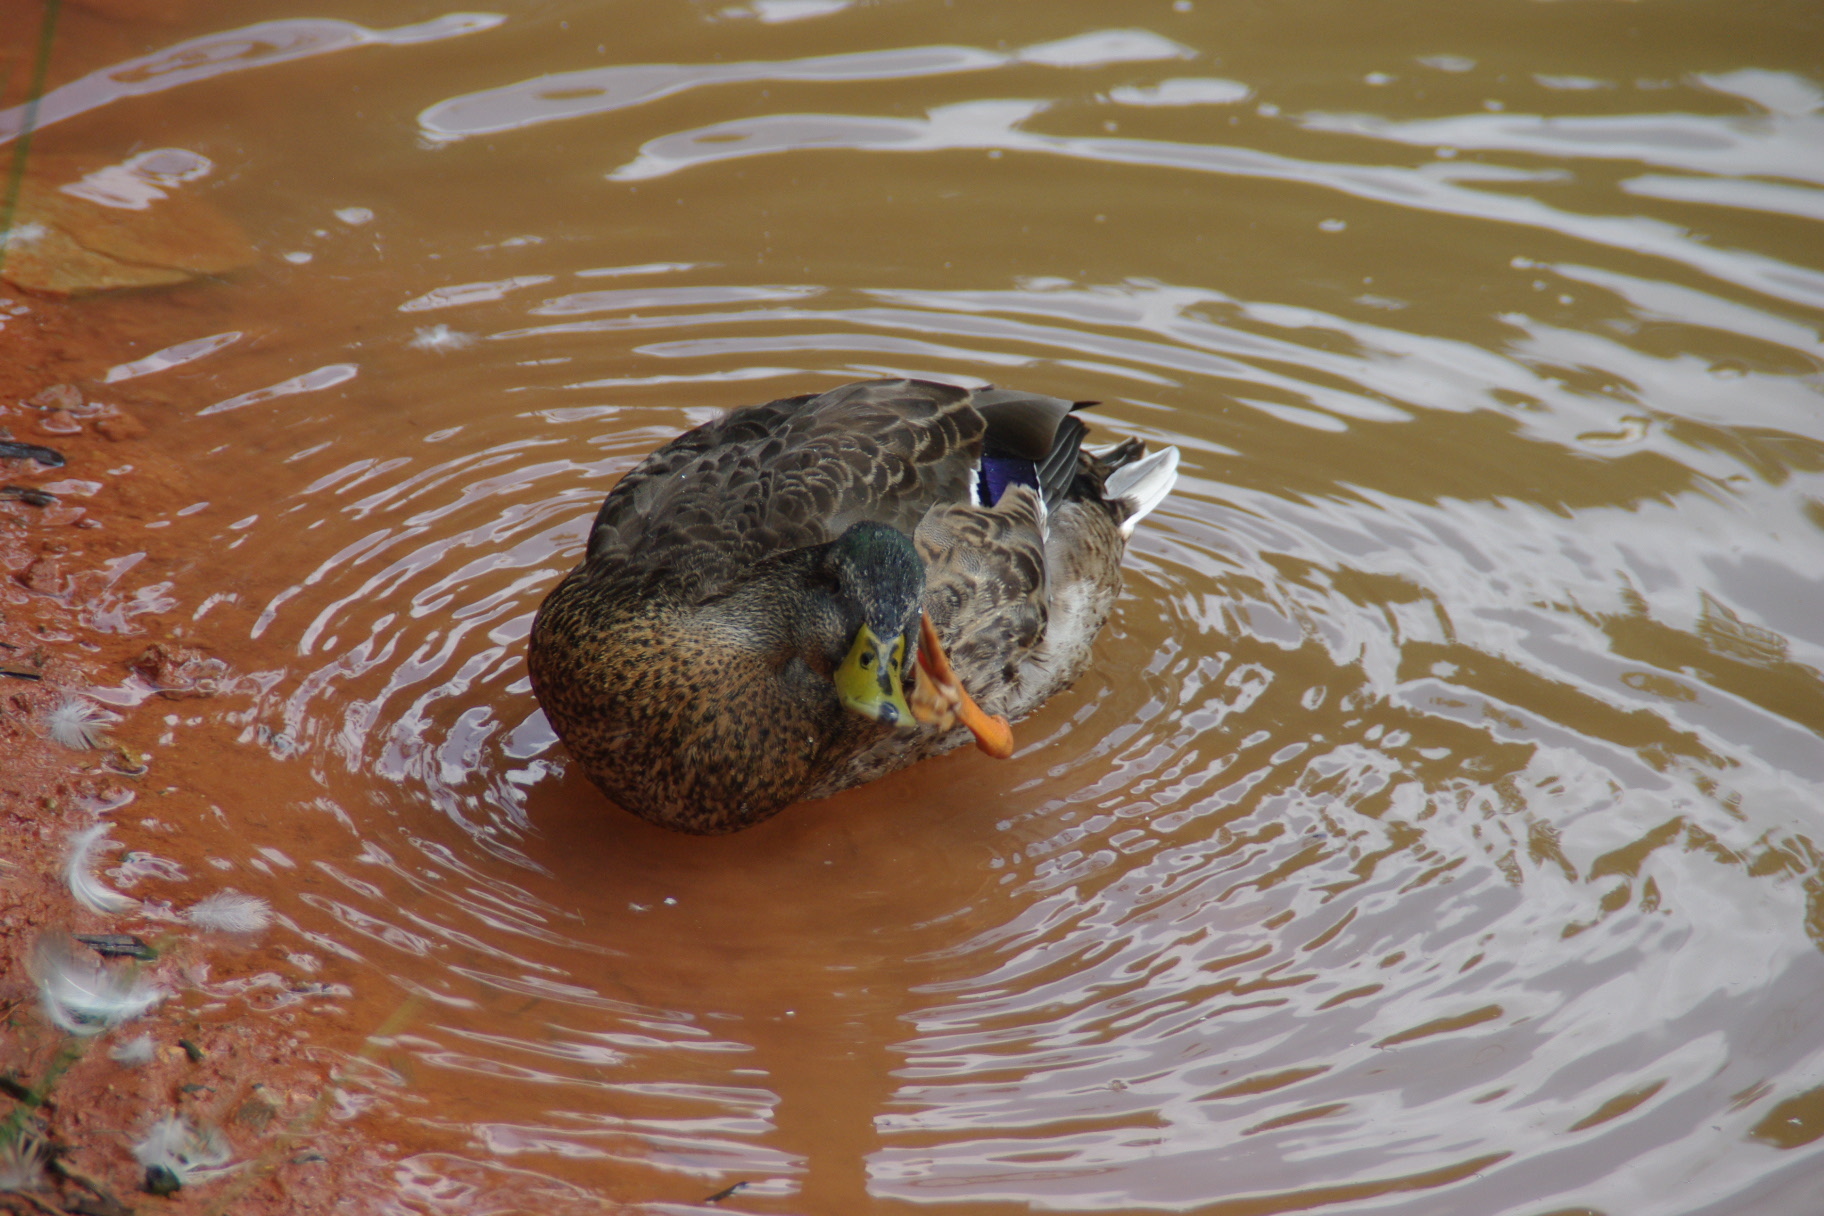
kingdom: Animalia
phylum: Chordata
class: Aves
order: Anseriformes
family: Anatidae
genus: Anas
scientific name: Anas platyrhynchos
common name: Mallard
